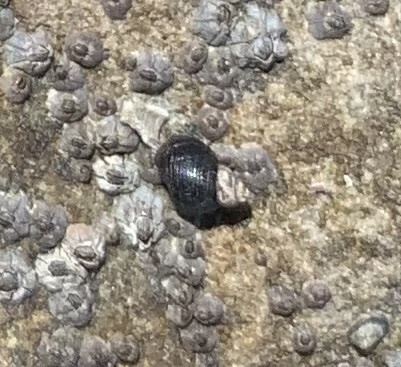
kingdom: Animalia
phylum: Mollusca
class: Gastropoda
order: Littorinimorpha
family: Littorinidae
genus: Littorina
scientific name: Littorina scutulata
